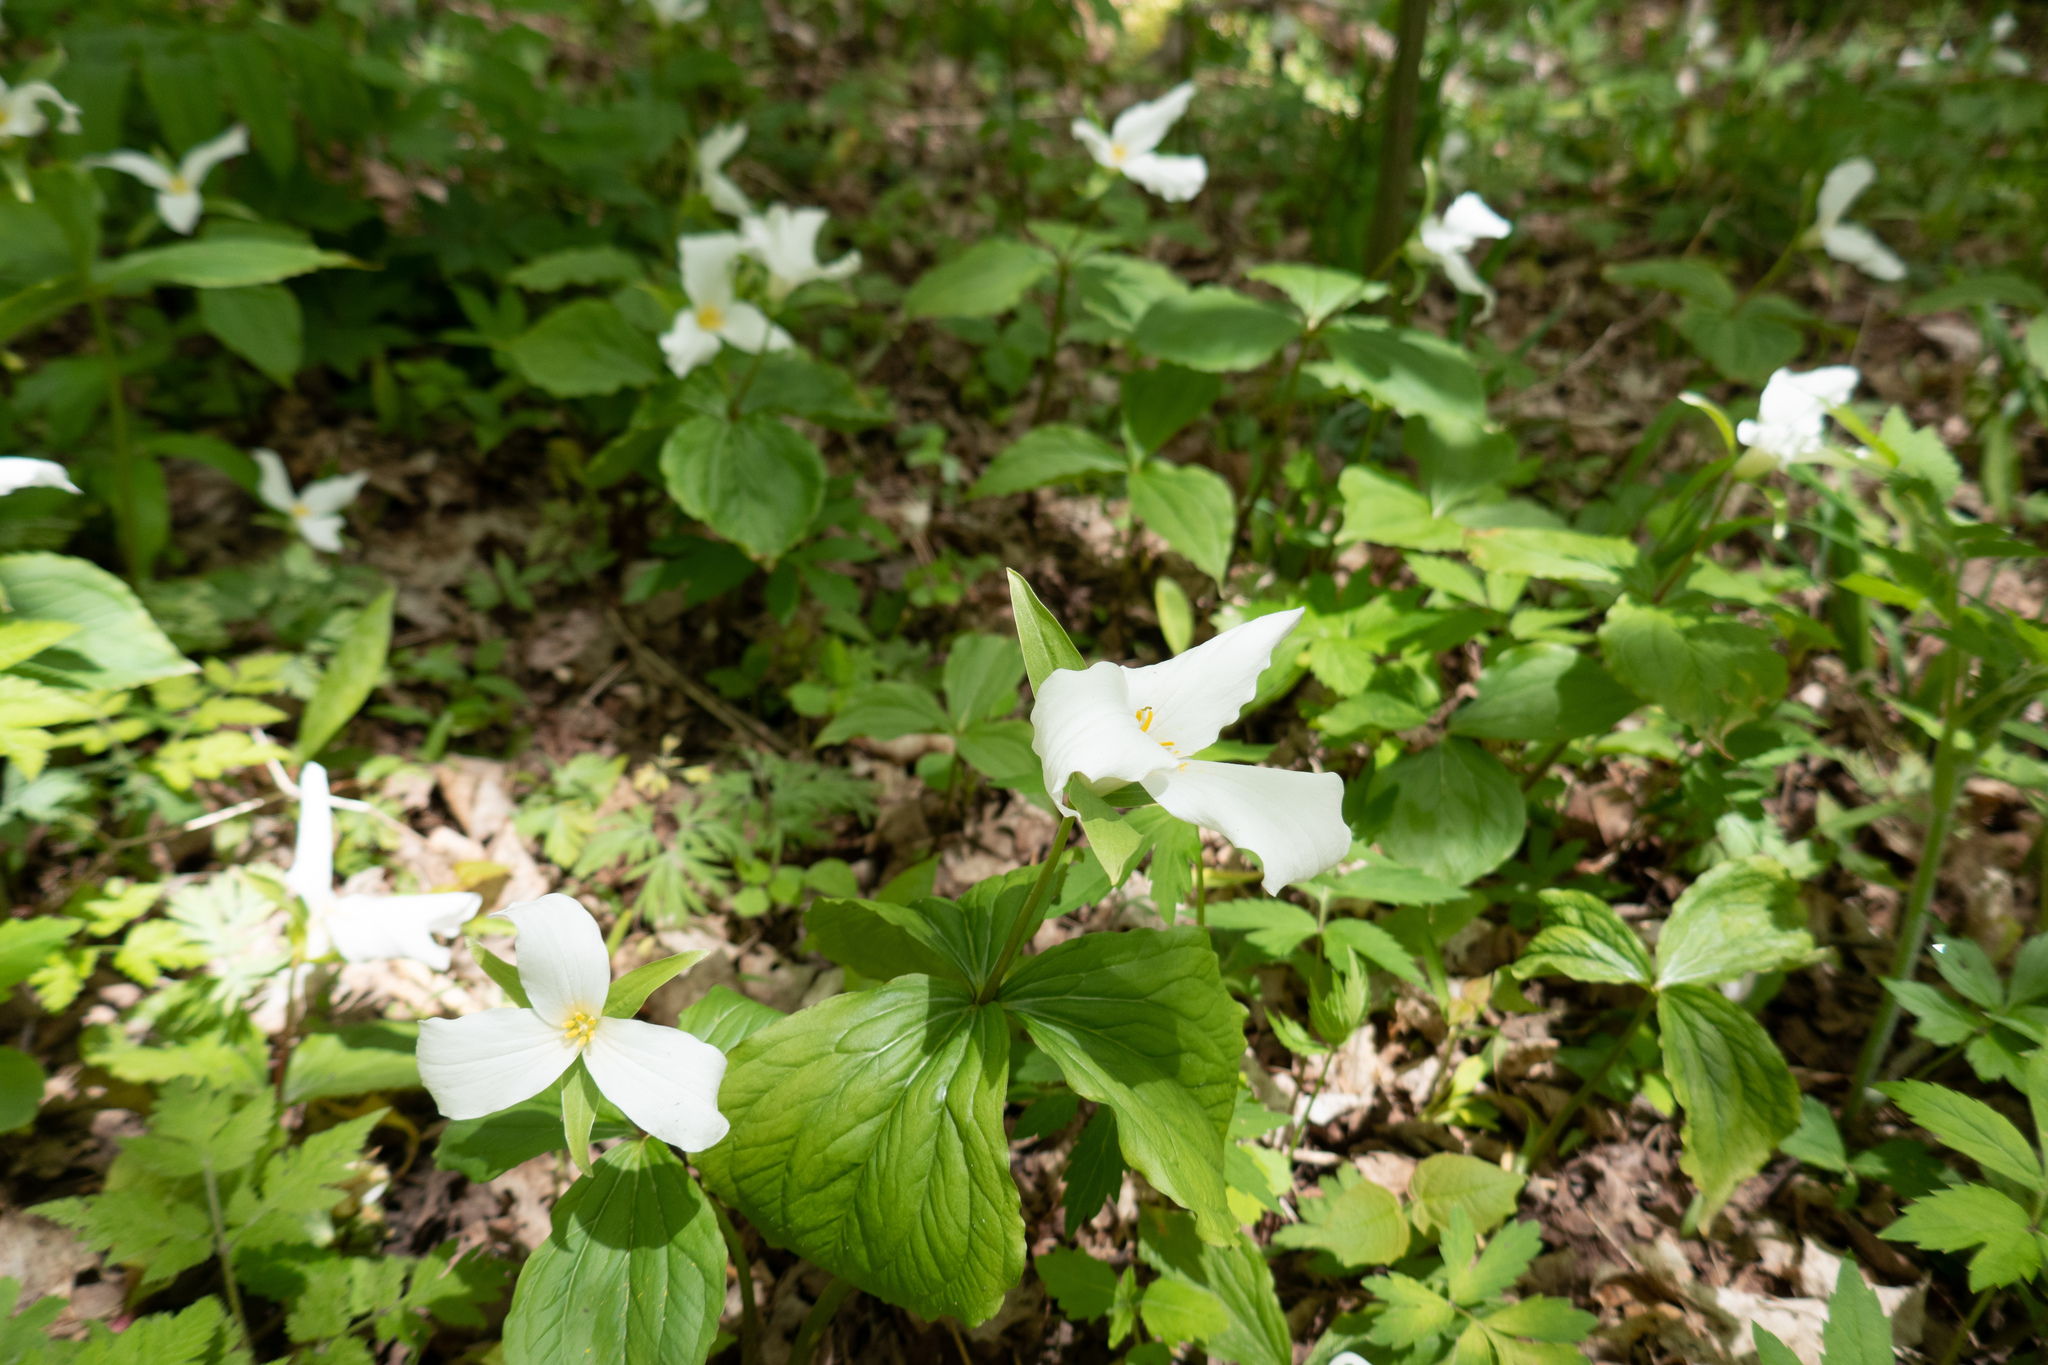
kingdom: Plantae
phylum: Tracheophyta
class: Liliopsida
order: Liliales
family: Melanthiaceae
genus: Trillium
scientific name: Trillium grandiflorum
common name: Great white trillium
